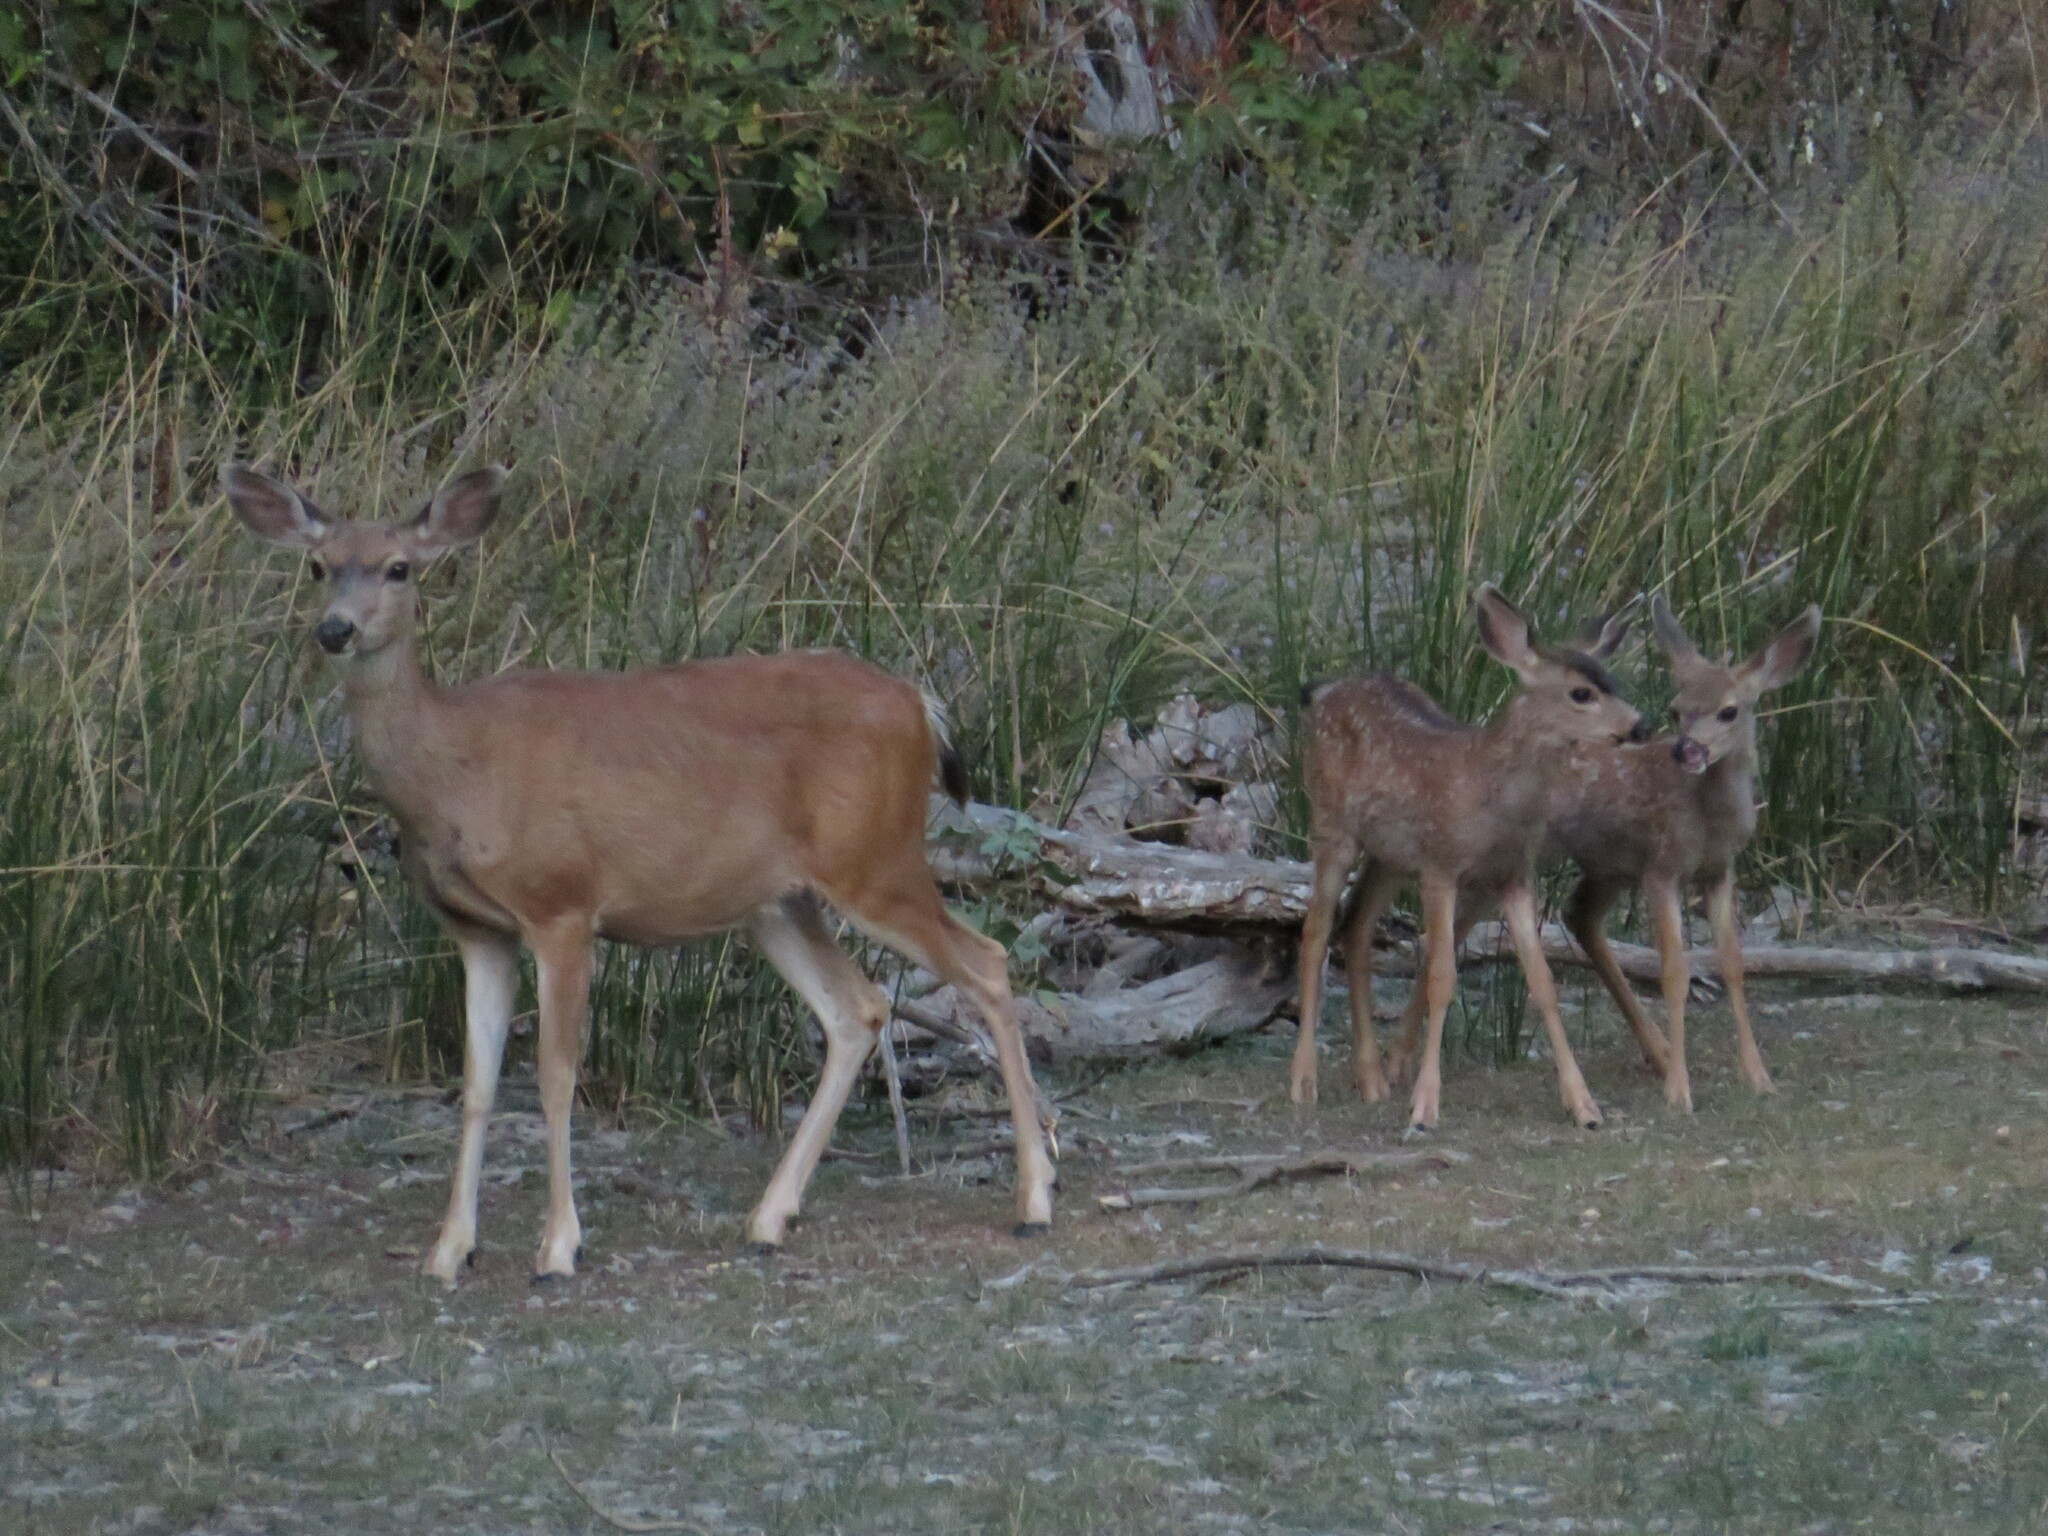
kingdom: Animalia
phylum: Chordata
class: Mammalia
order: Artiodactyla
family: Cervidae
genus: Odocoileus
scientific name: Odocoileus hemionus
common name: Mule deer
